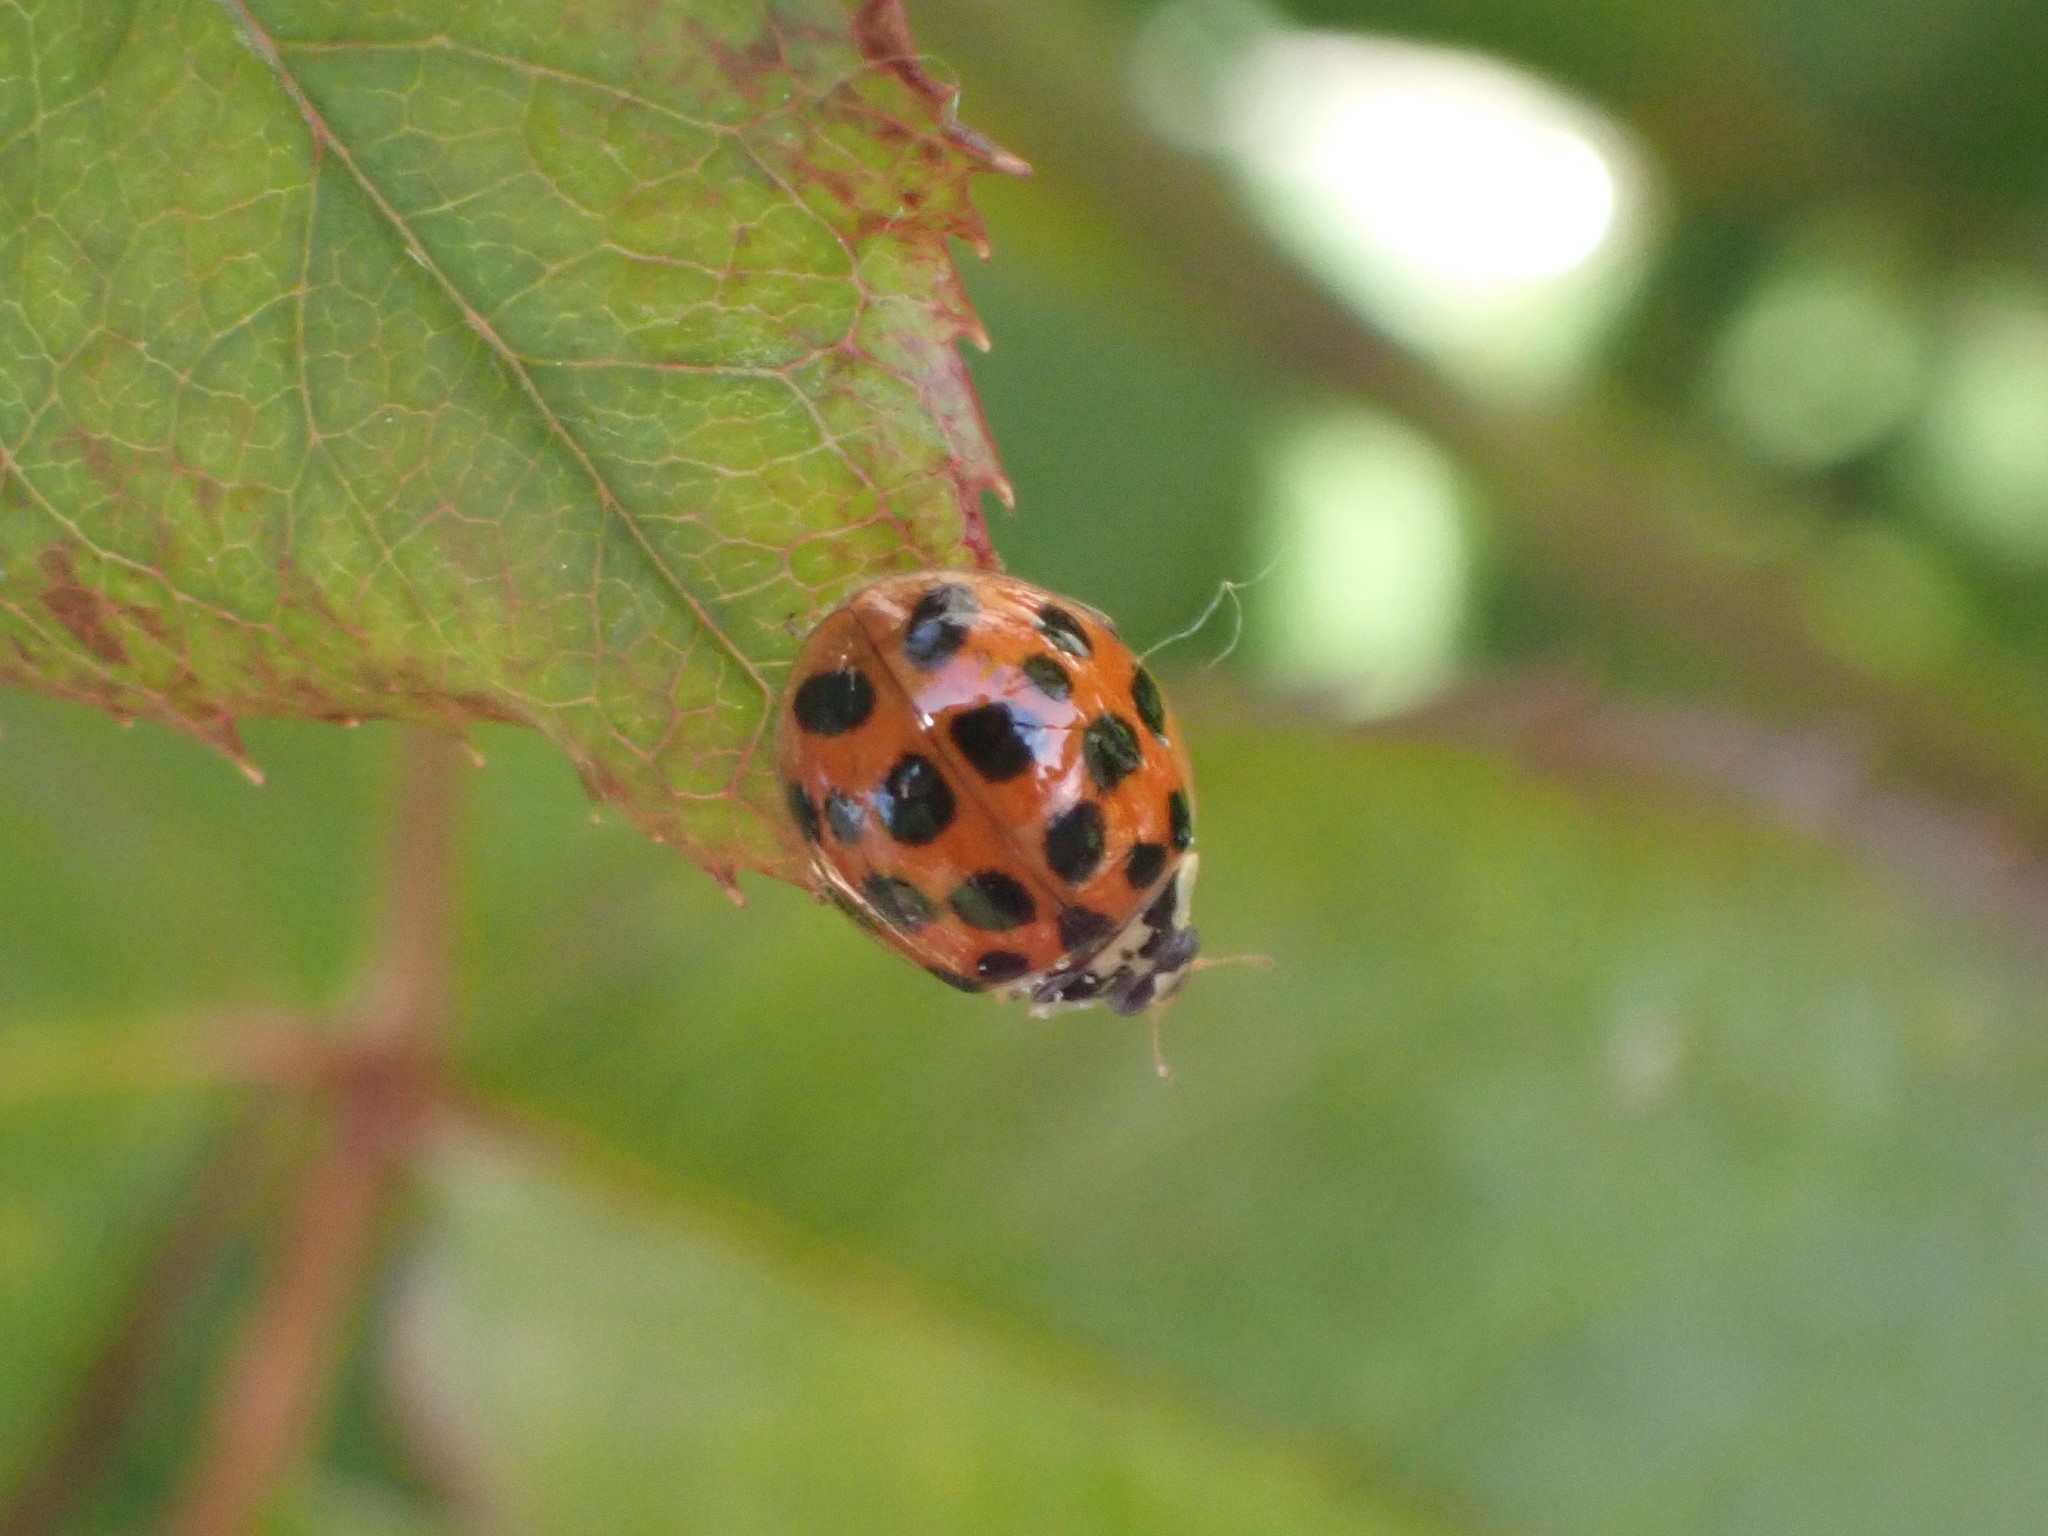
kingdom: Animalia
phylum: Arthropoda
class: Insecta
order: Coleoptera
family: Coccinellidae
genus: Harmonia
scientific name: Harmonia axyridis
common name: Harlequin ladybird
